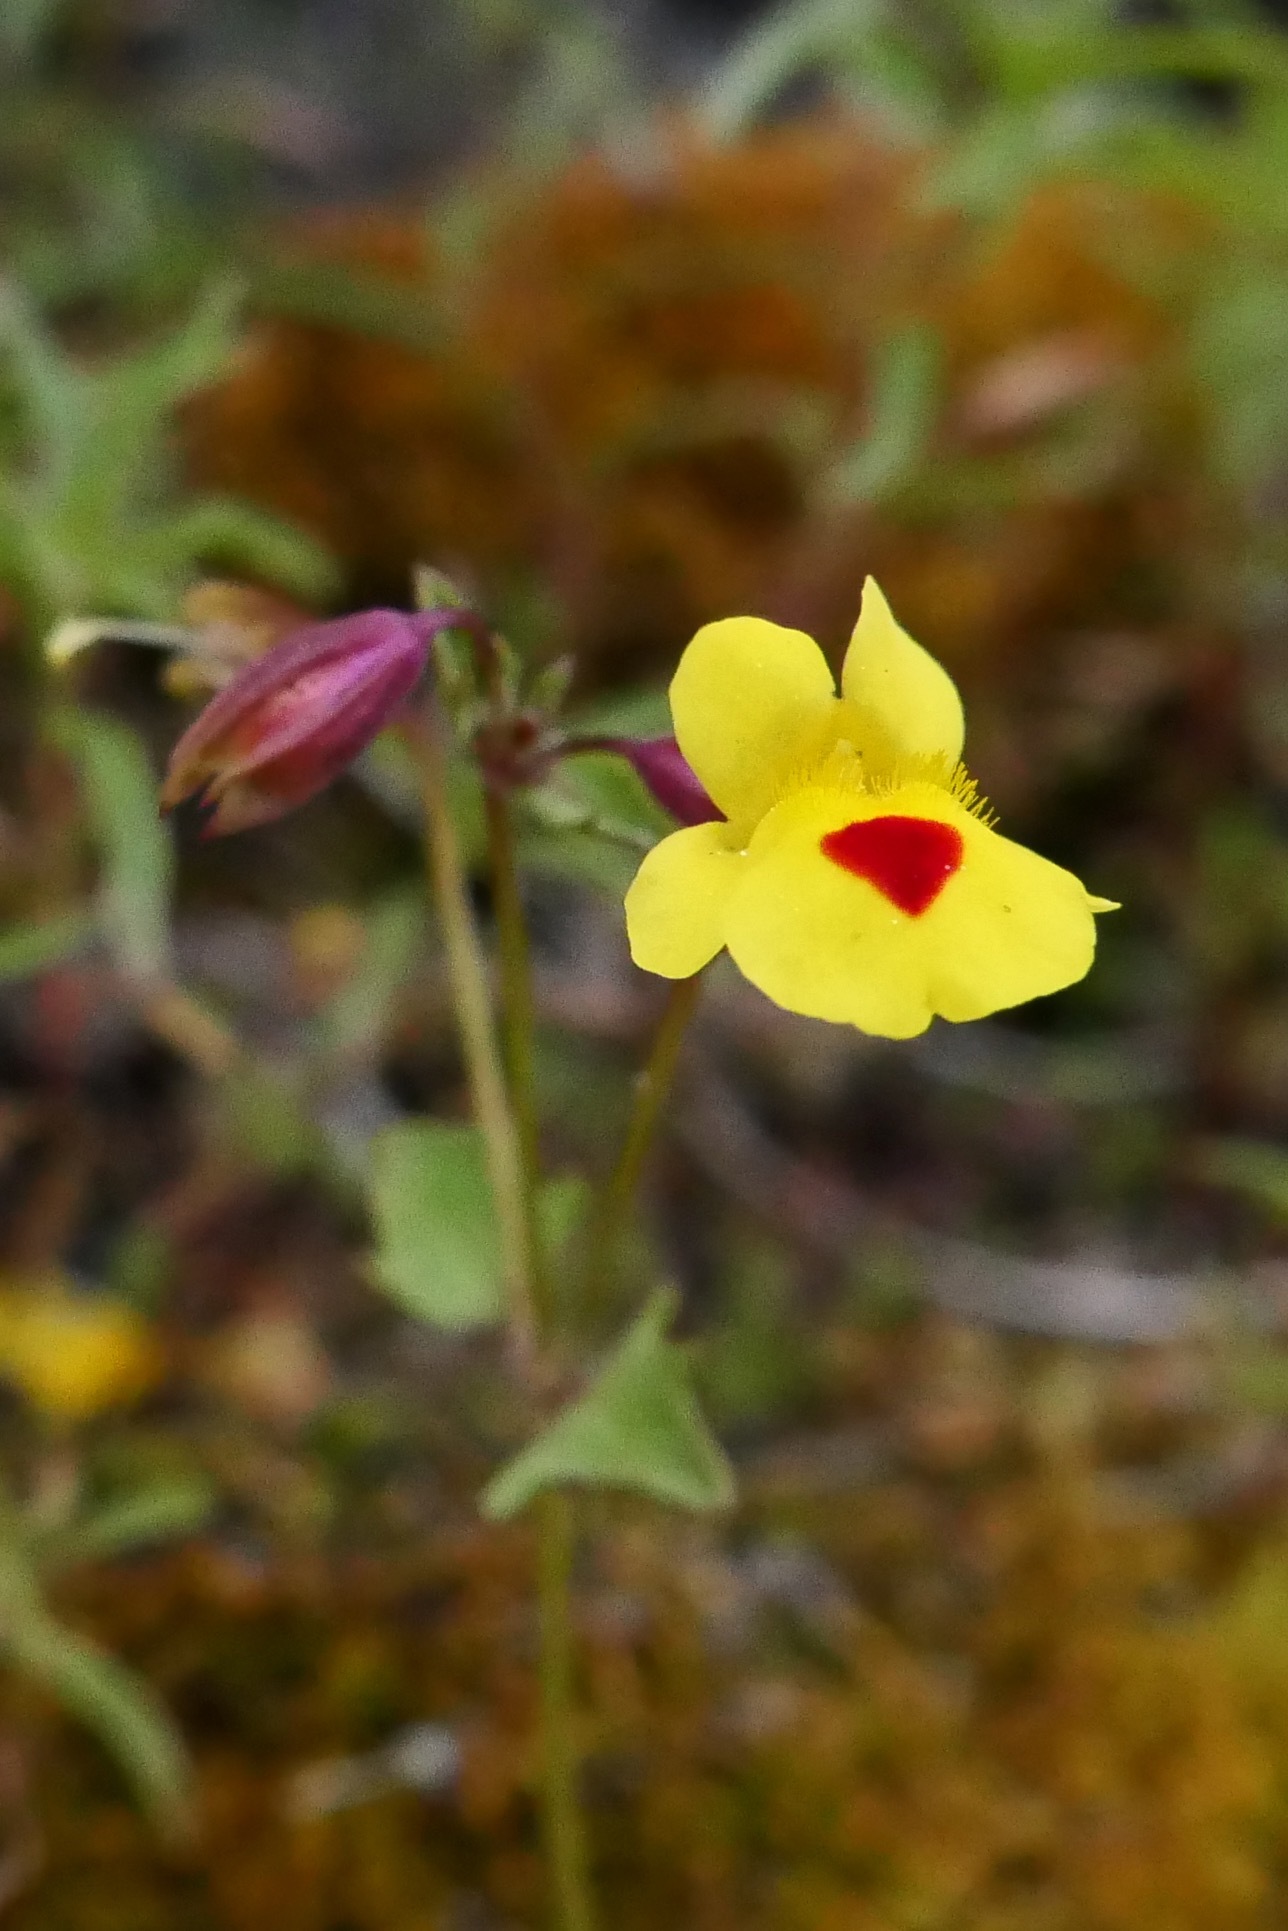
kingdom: Plantae
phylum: Tracheophyta
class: Magnoliopsida
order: Lamiales
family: Phrymaceae
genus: Erythranthe
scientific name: Erythranthe laciniata
